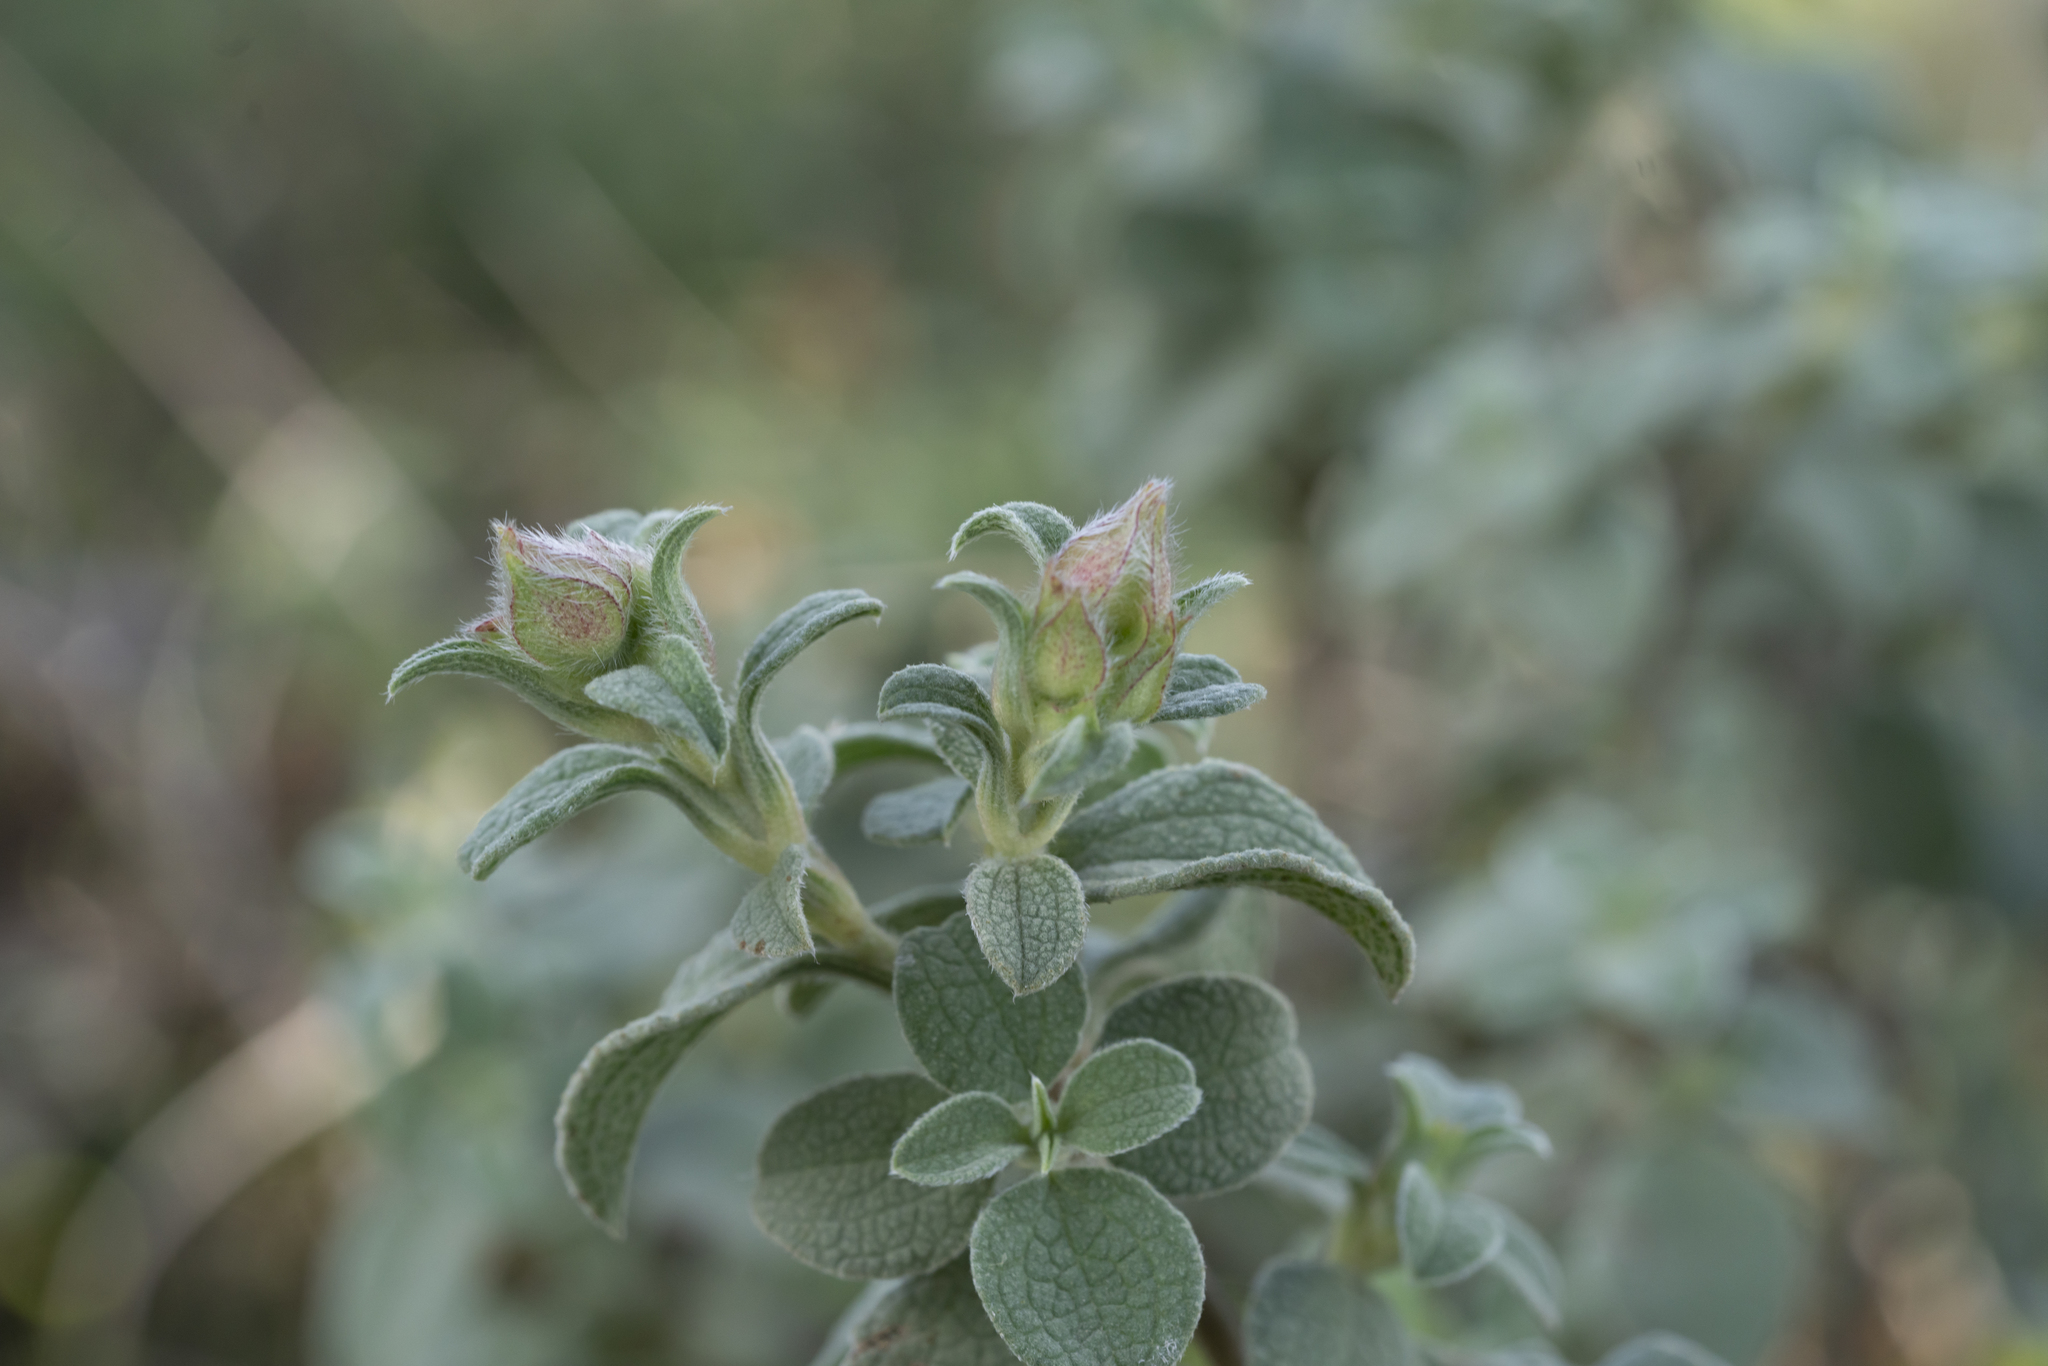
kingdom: Plantae
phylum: Tracheophyta
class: Magnoliopsida
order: Malvales
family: Cistaceae
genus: Cistus
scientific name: Cistus parviflorus
